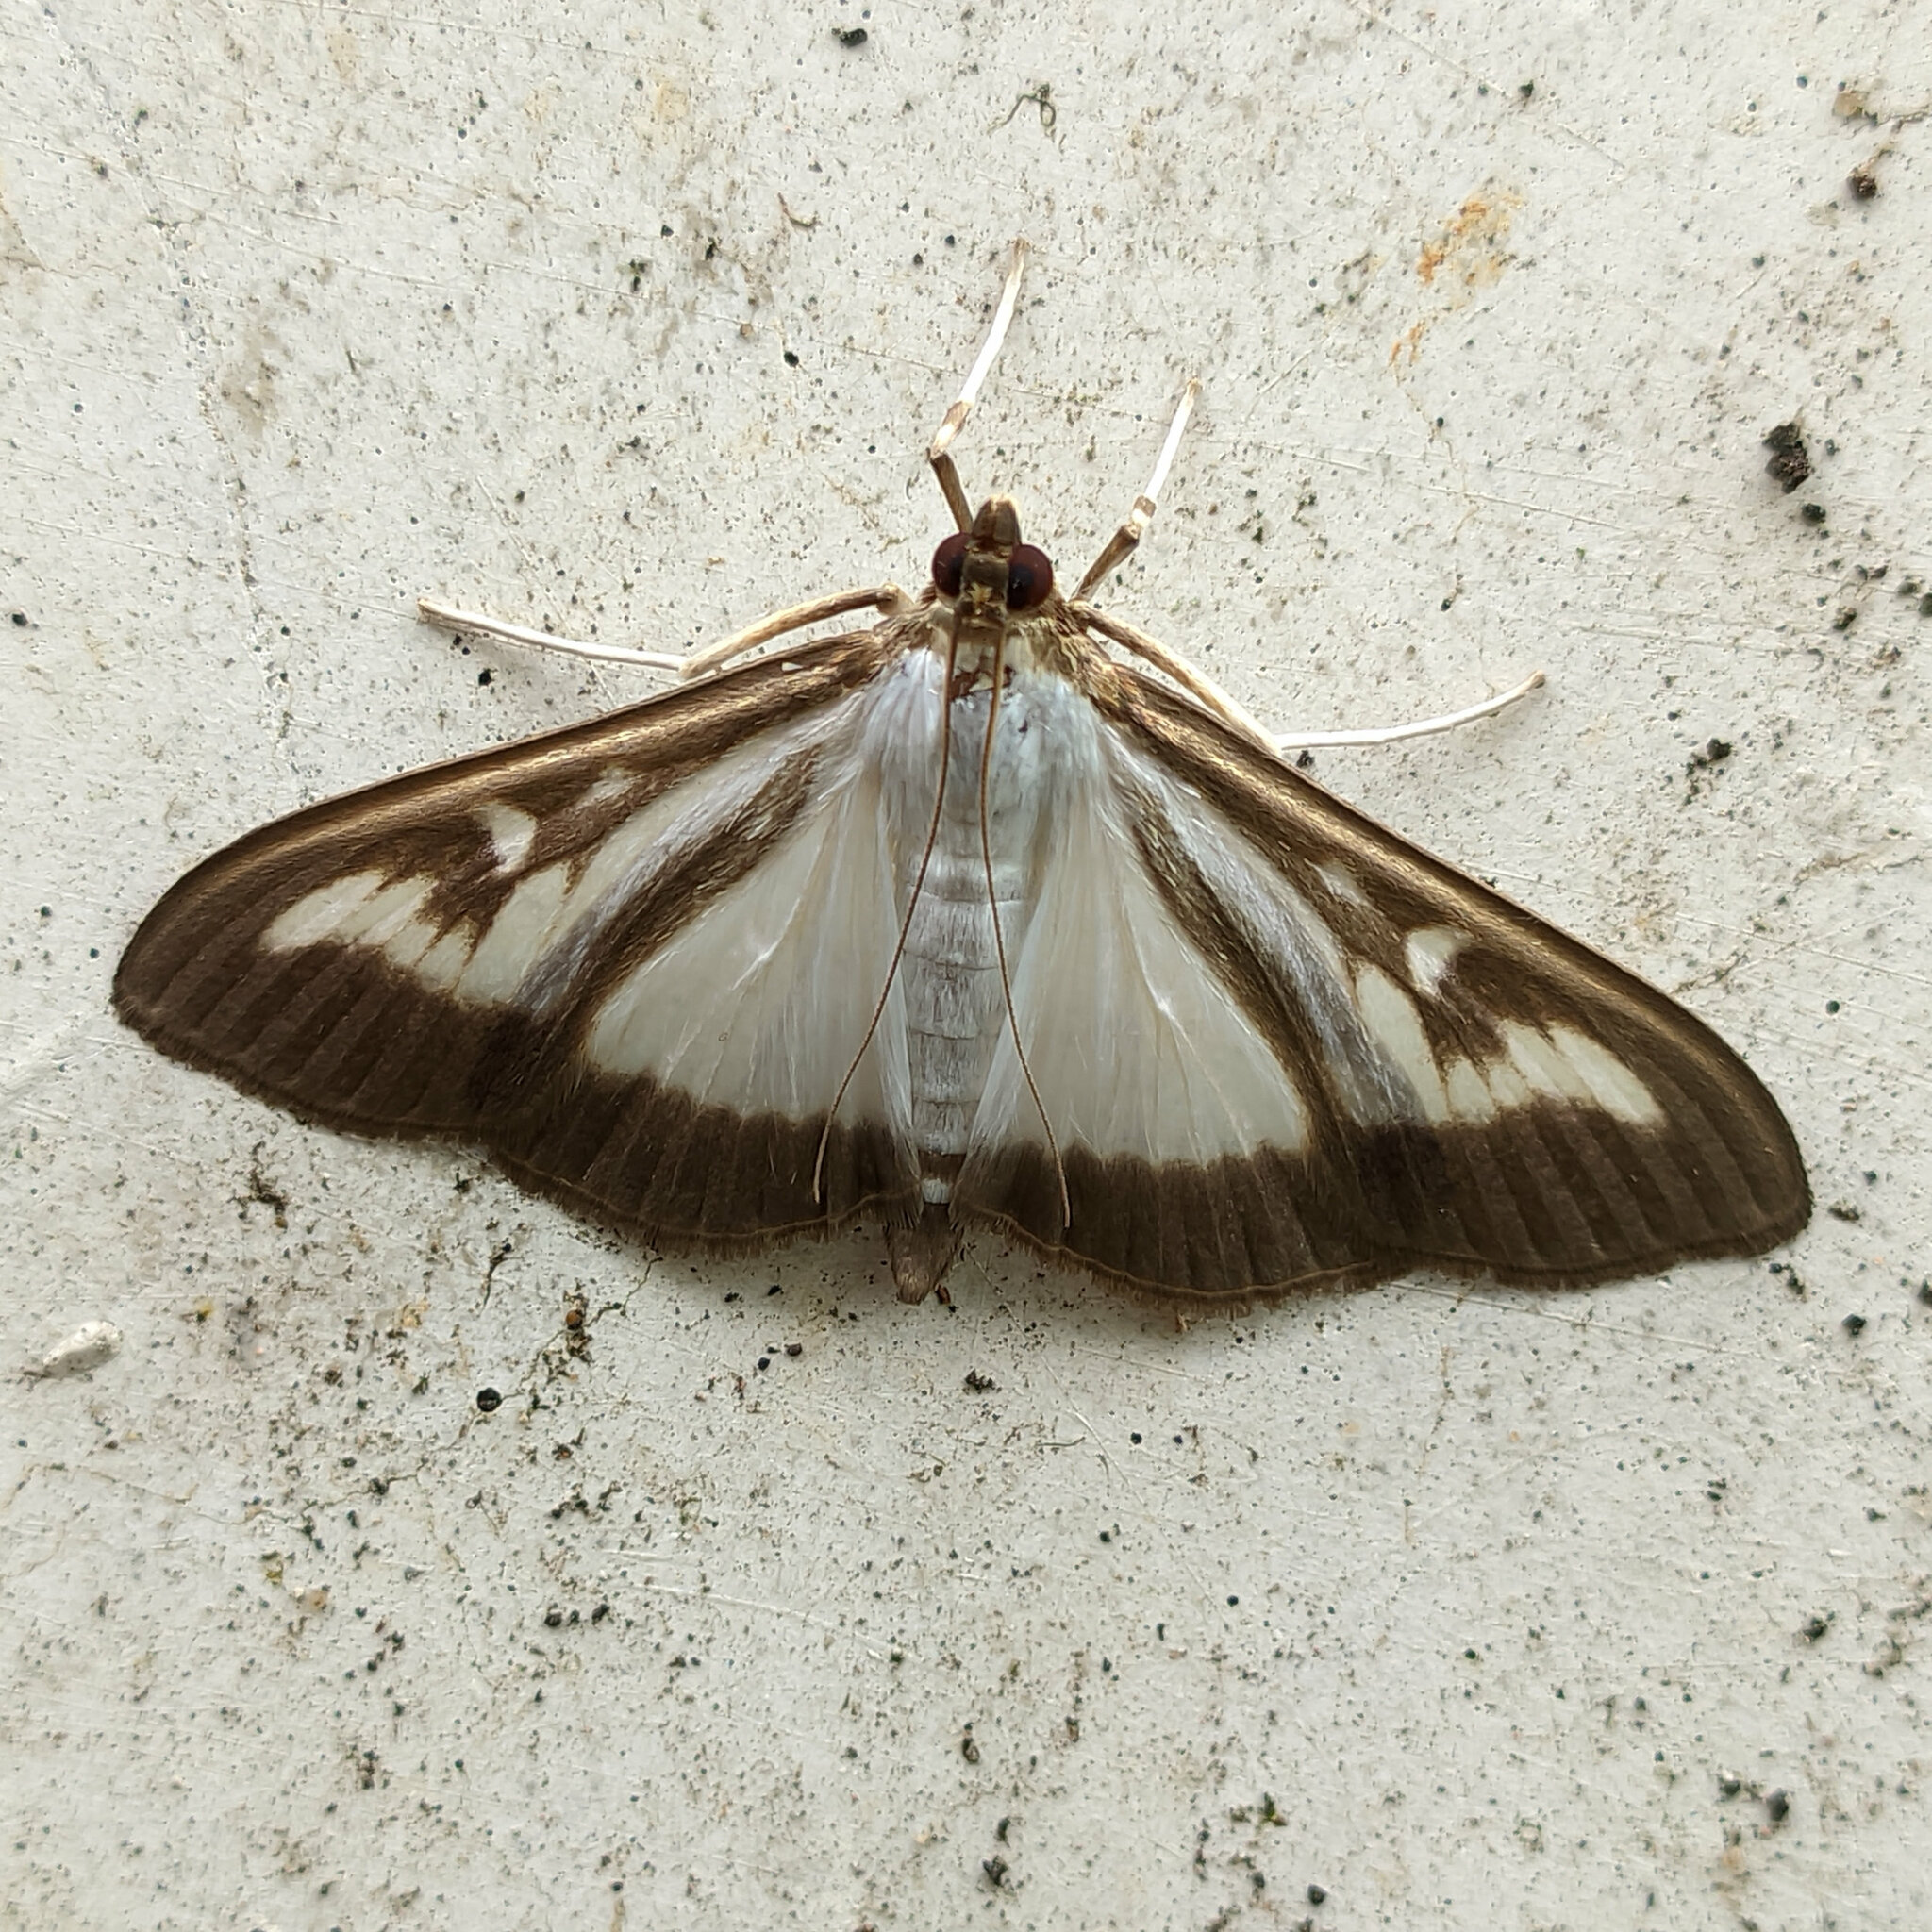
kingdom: Animalia
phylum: Arthropoda
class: Insecta
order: Lepidoptera
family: Crambidae
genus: Cydalima
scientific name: Cydalima perspectalis
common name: Box tree moth
